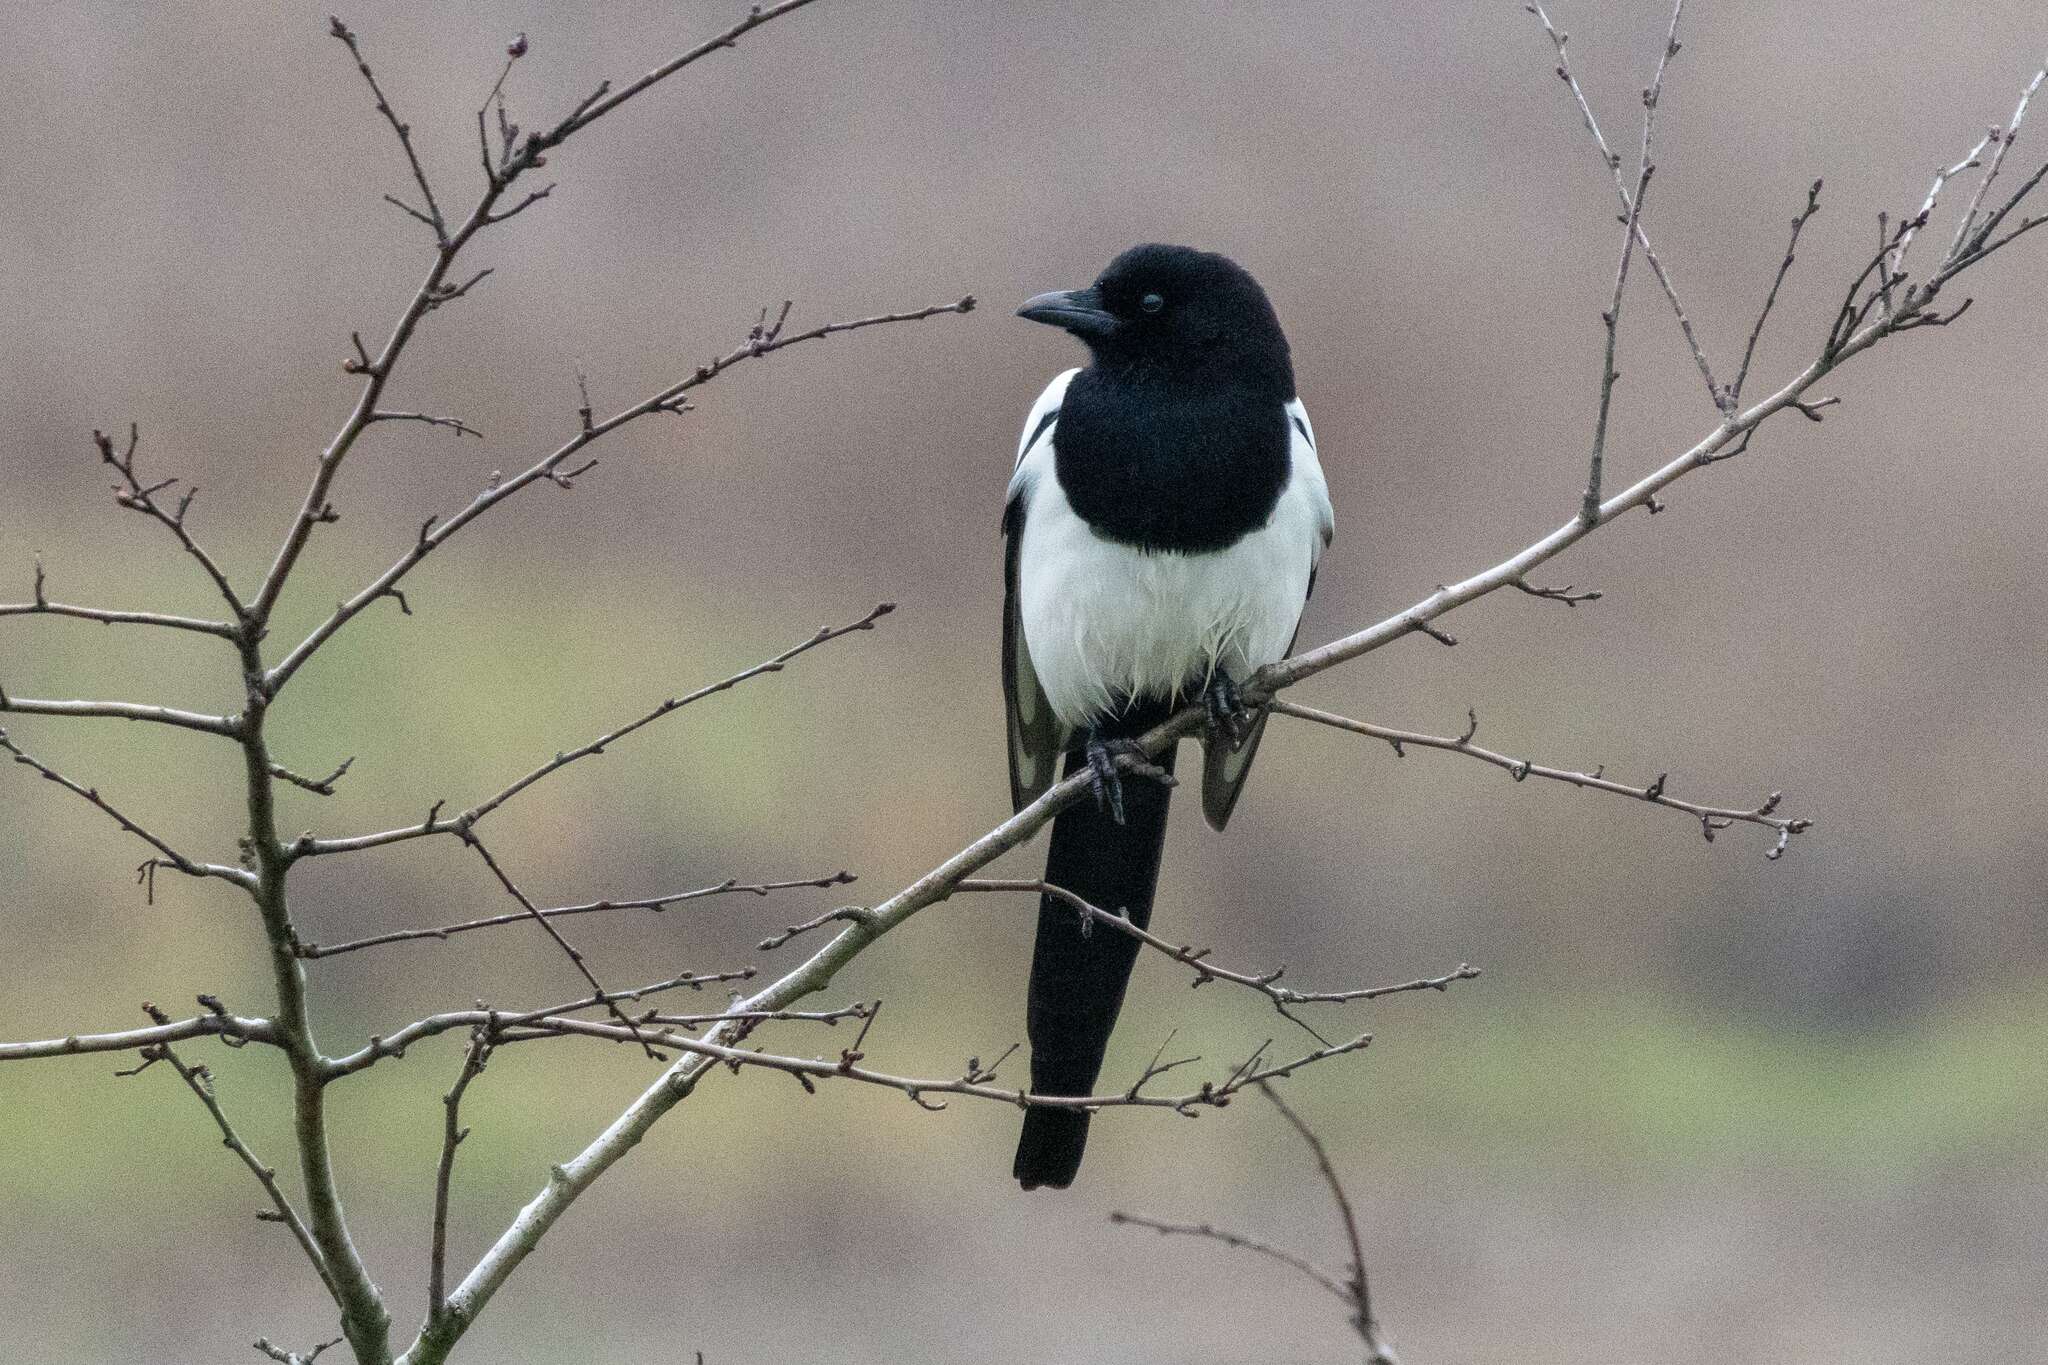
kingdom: Animalia
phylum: Chordata
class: Aves
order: Passeriformes
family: Corvidae
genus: Pica
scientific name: Pica pica
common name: Eurasian magpie
